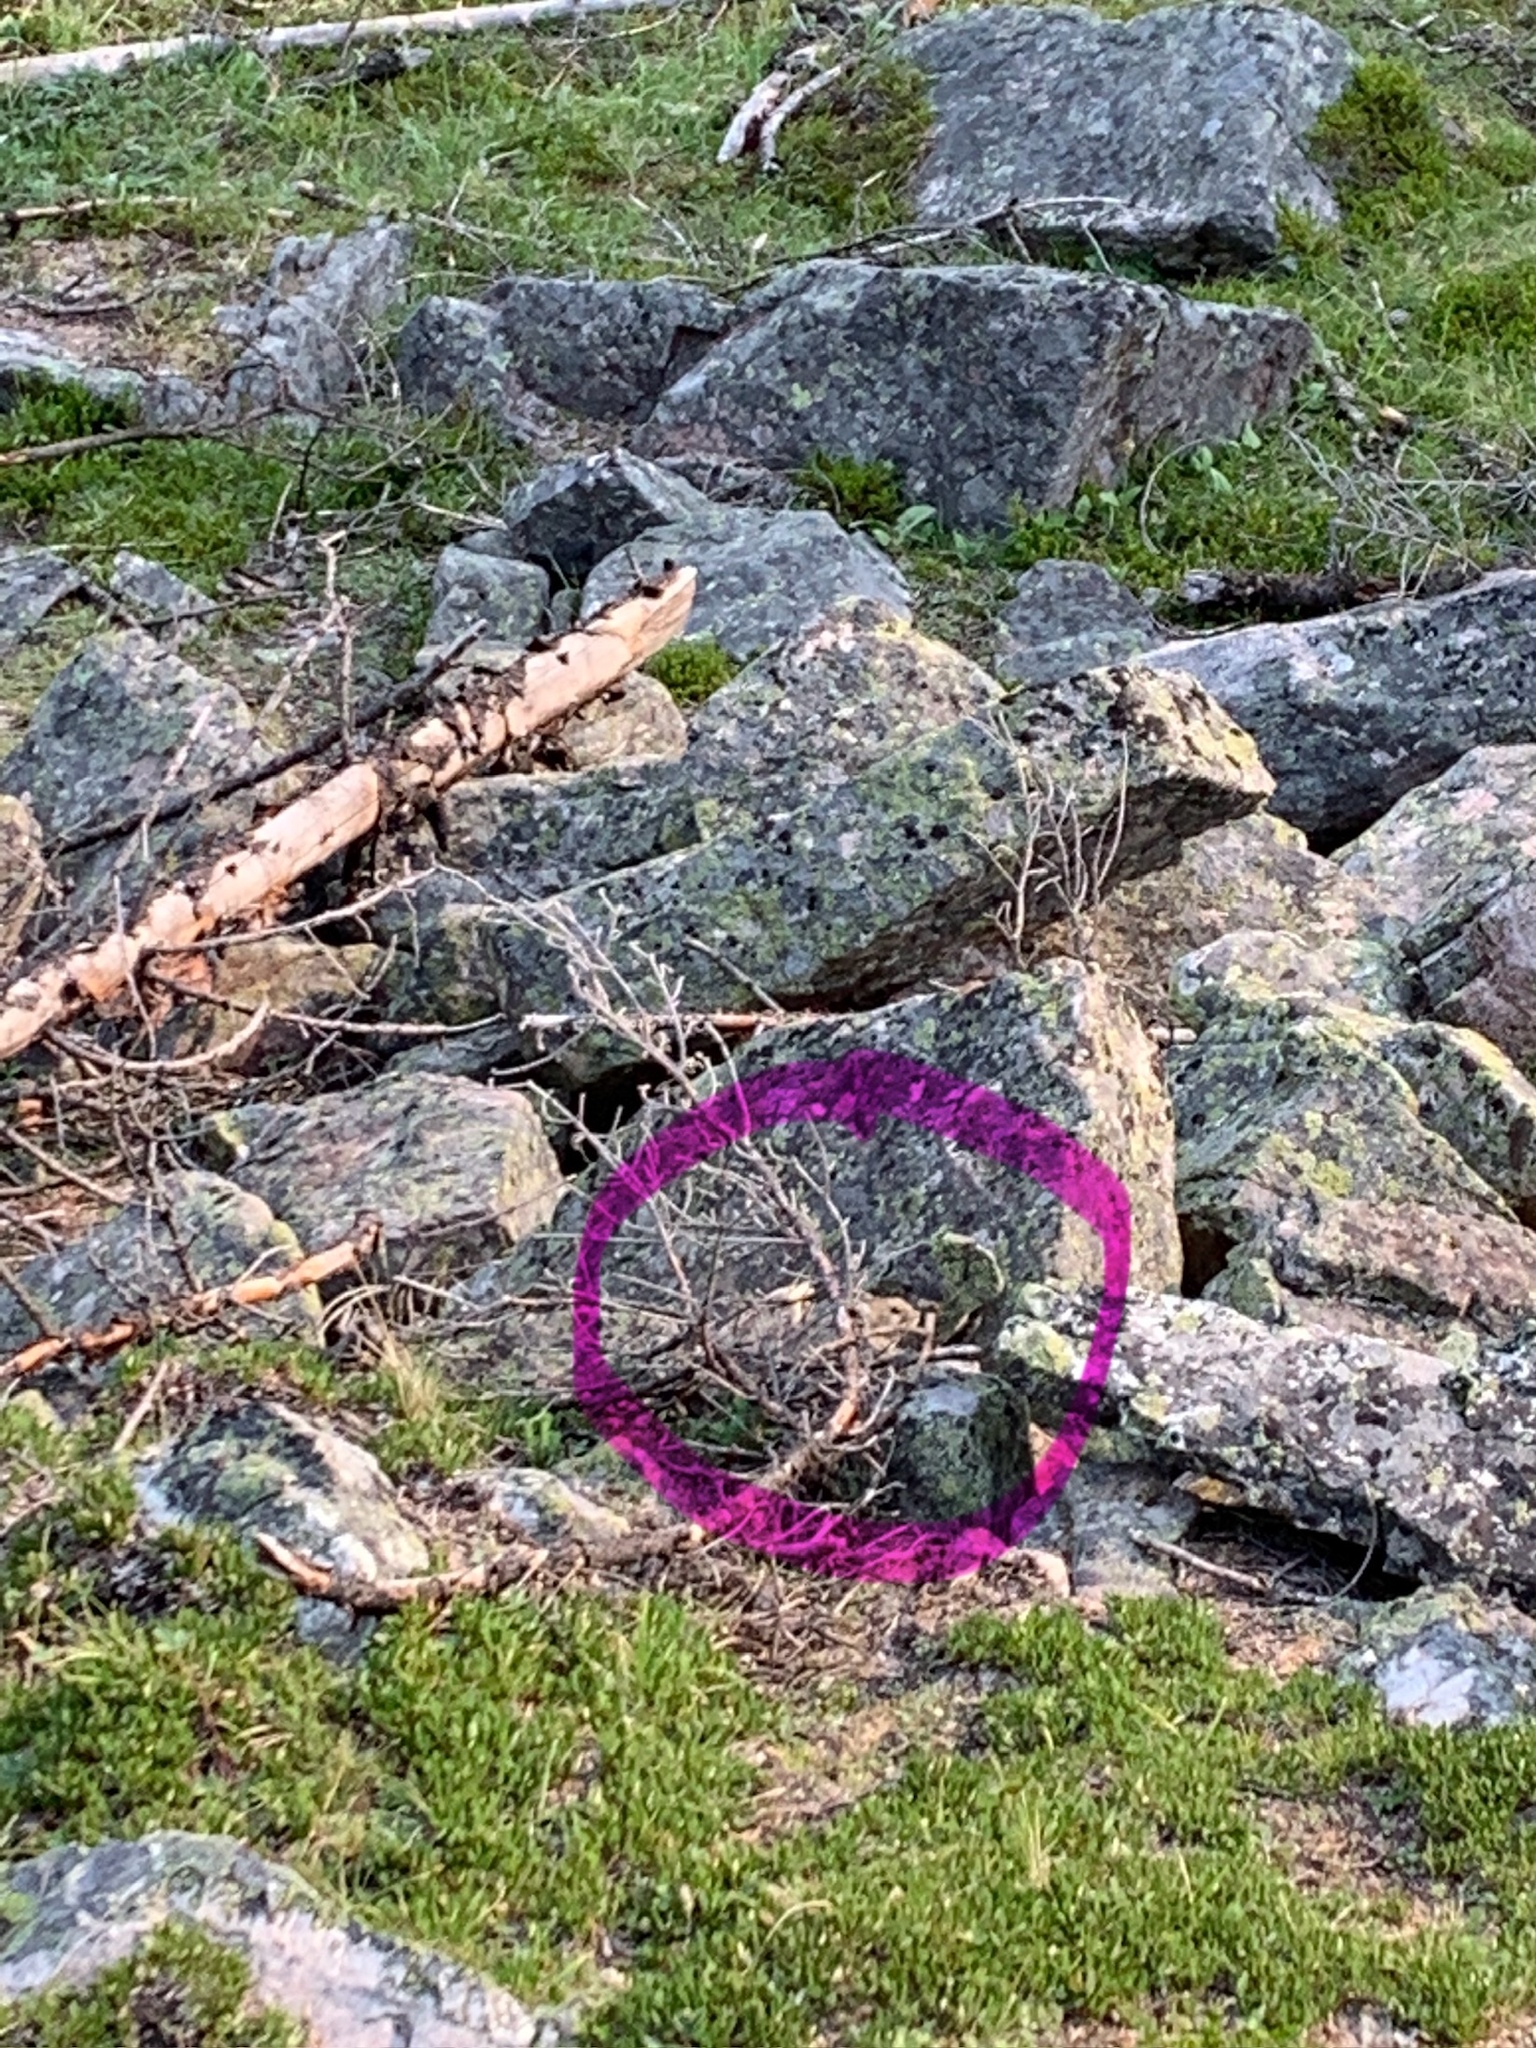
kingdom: Animalia
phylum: Chordata
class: Mammalia
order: Lagomorpha
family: Ochotonidae
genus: Ochotona
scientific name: Ochotona princeps
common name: American pika
